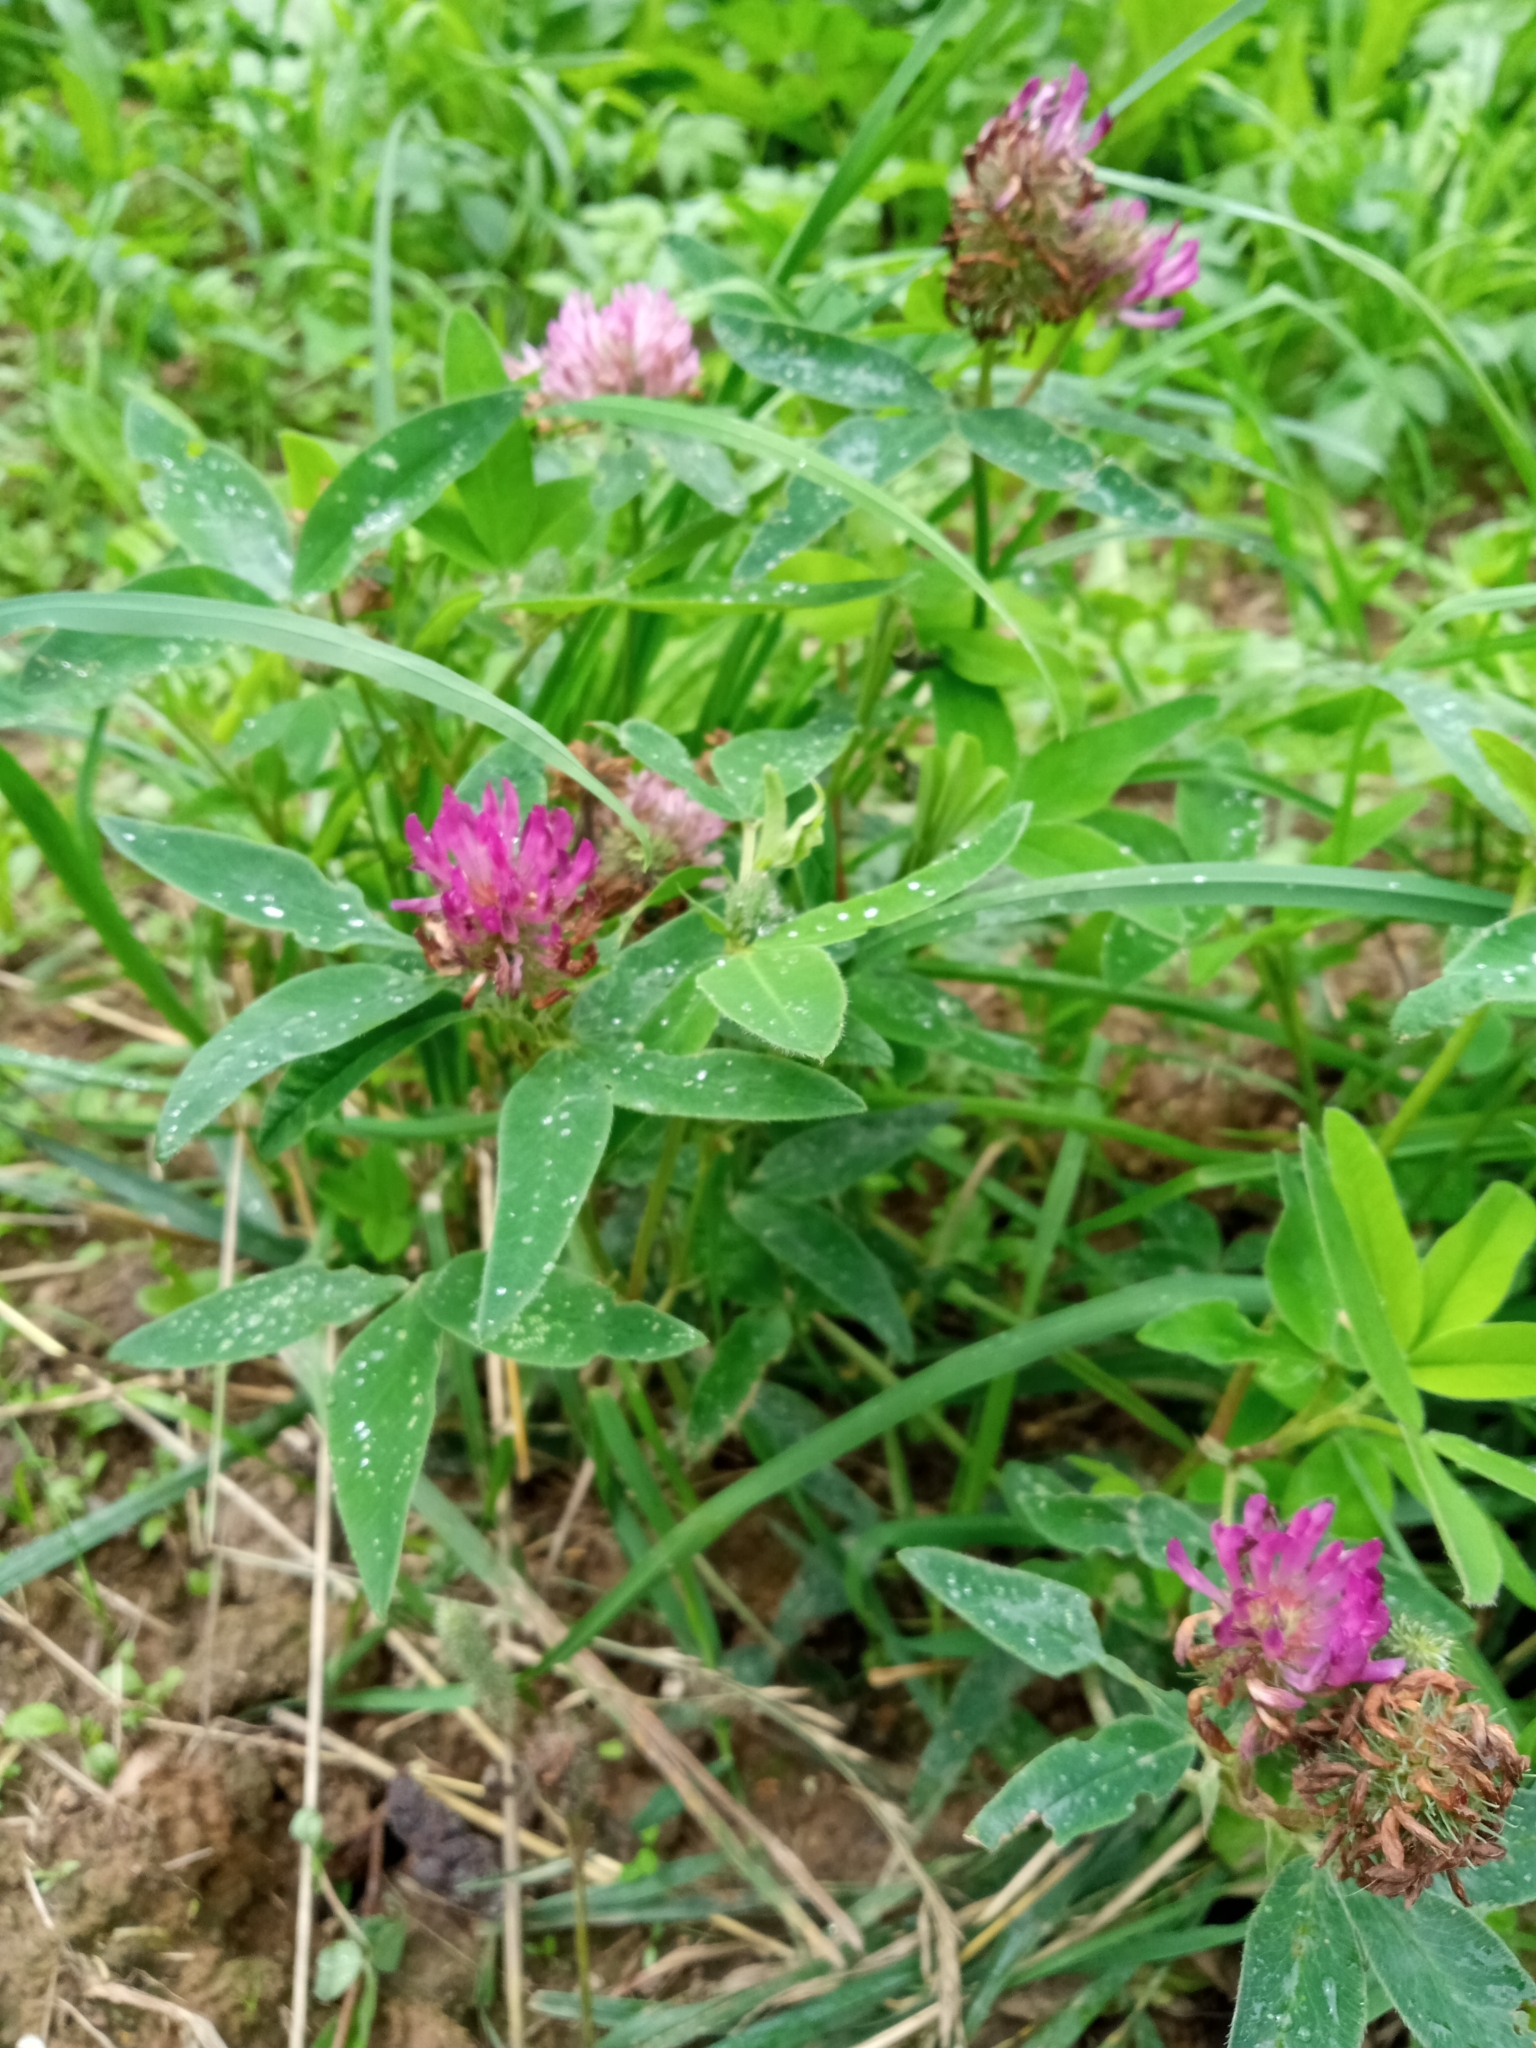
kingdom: Plantae
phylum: Tracheophyta
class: Magnoliopsida
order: Fabales
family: Fabaceae
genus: Trifolium
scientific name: Trifolium medium
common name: Zigzag clover
